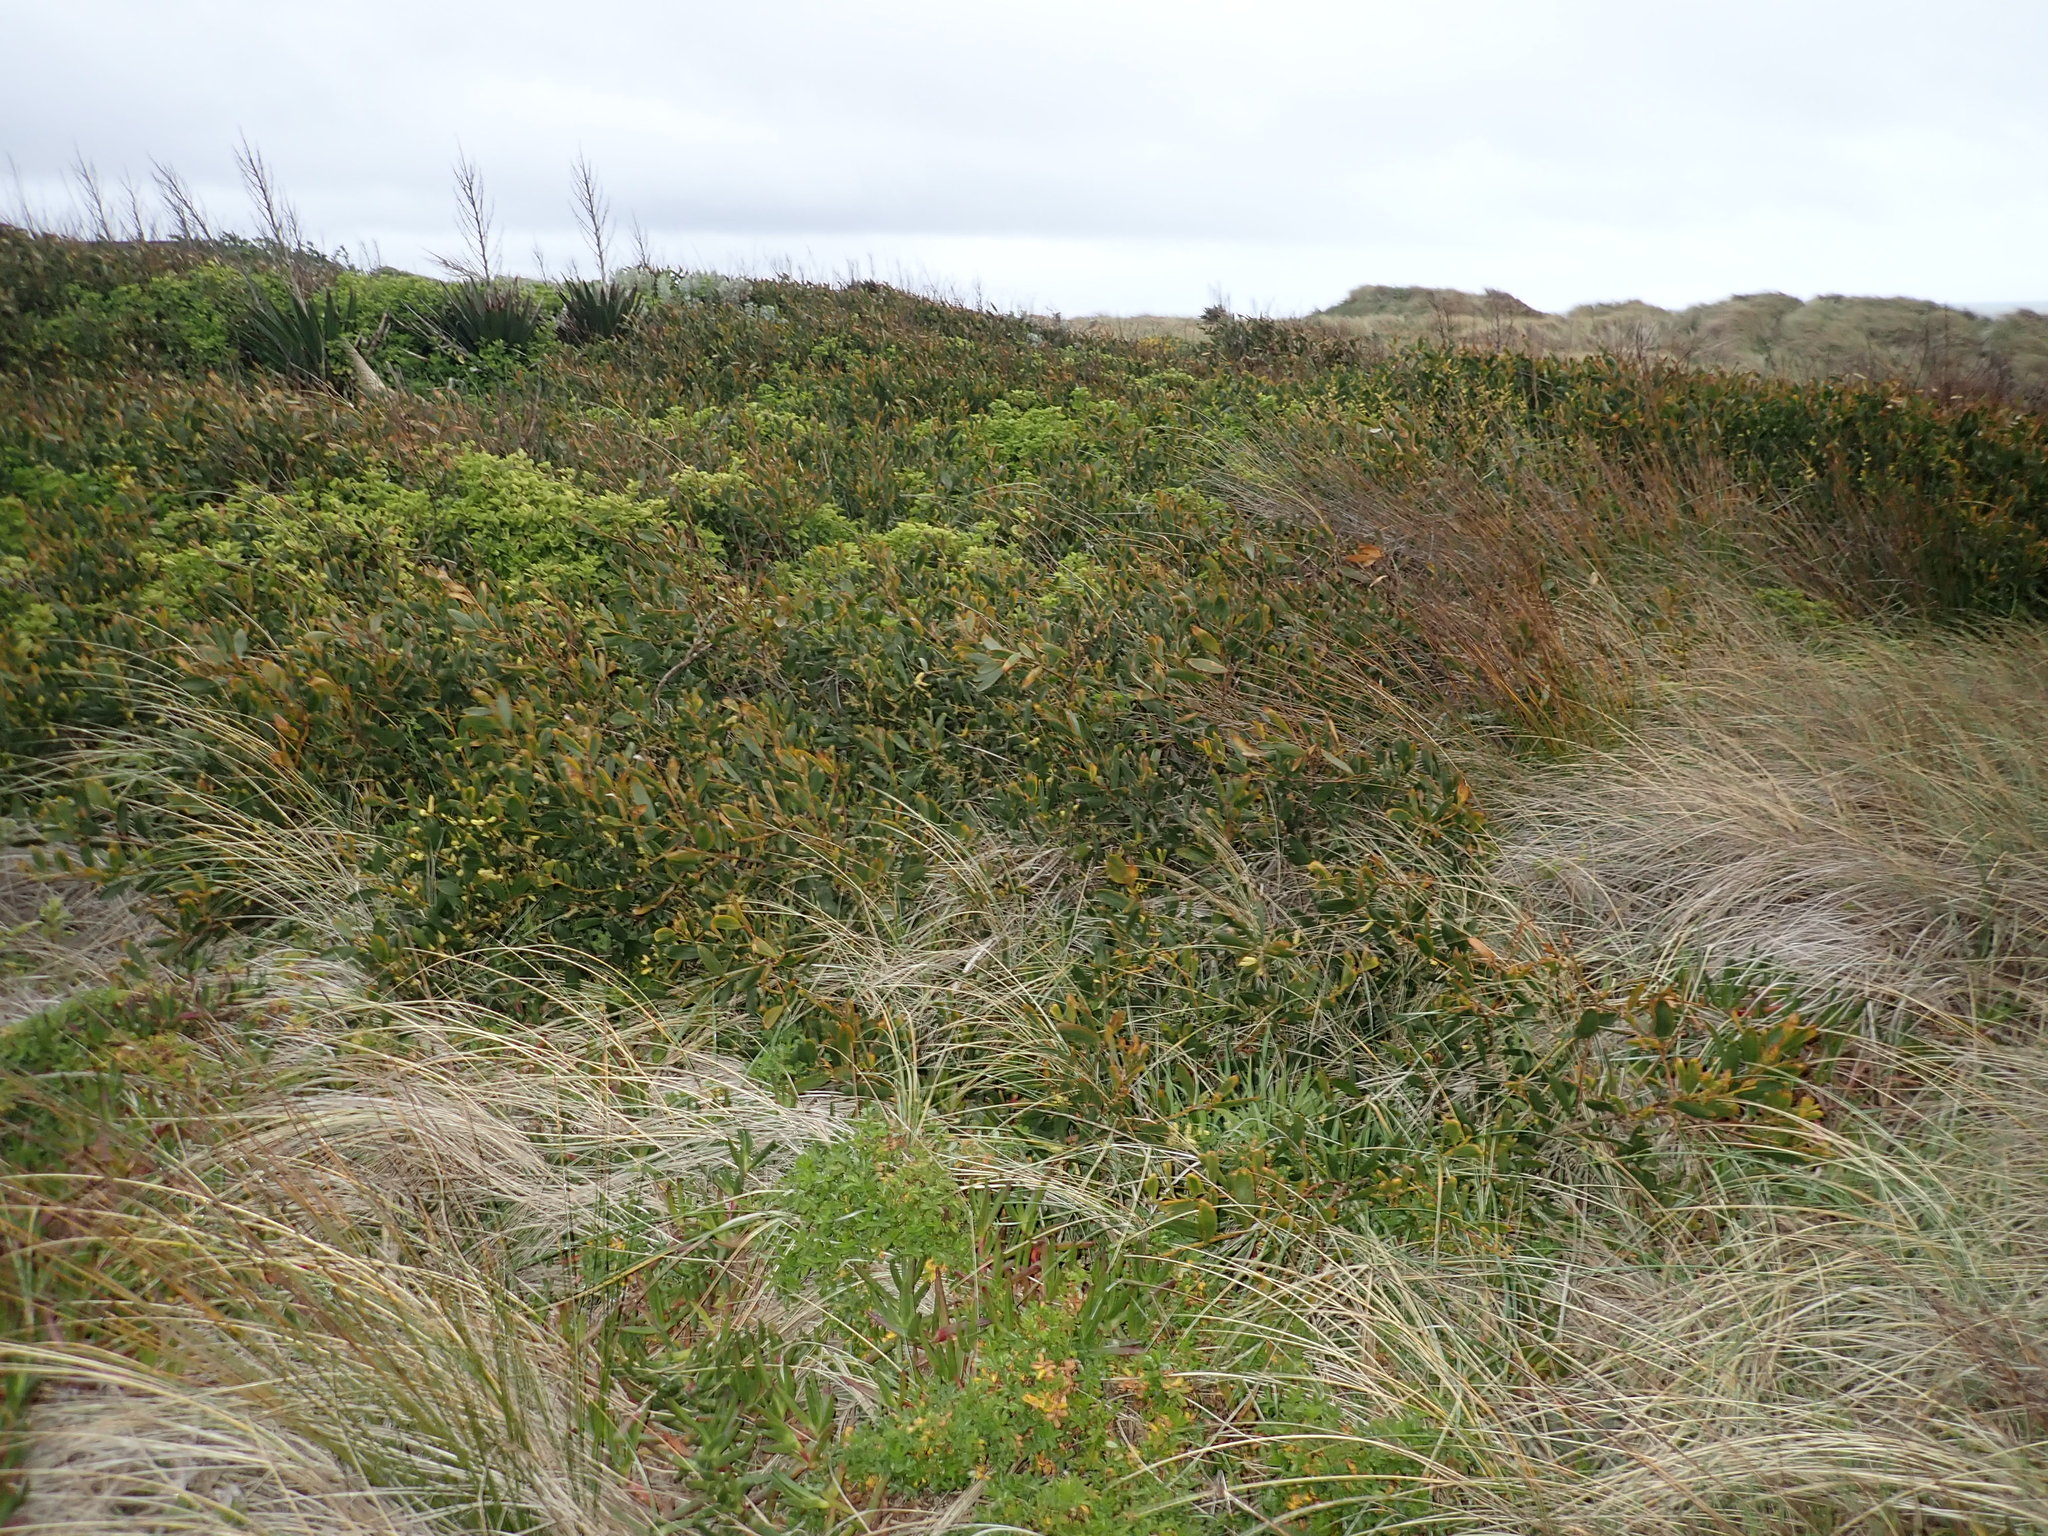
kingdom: Plantae
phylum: Tracheophyta
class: Magnoliopsida
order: Fabales
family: Fabaceae
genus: Acacia
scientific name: Acacia longifolia
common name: Sydney golden wattle
